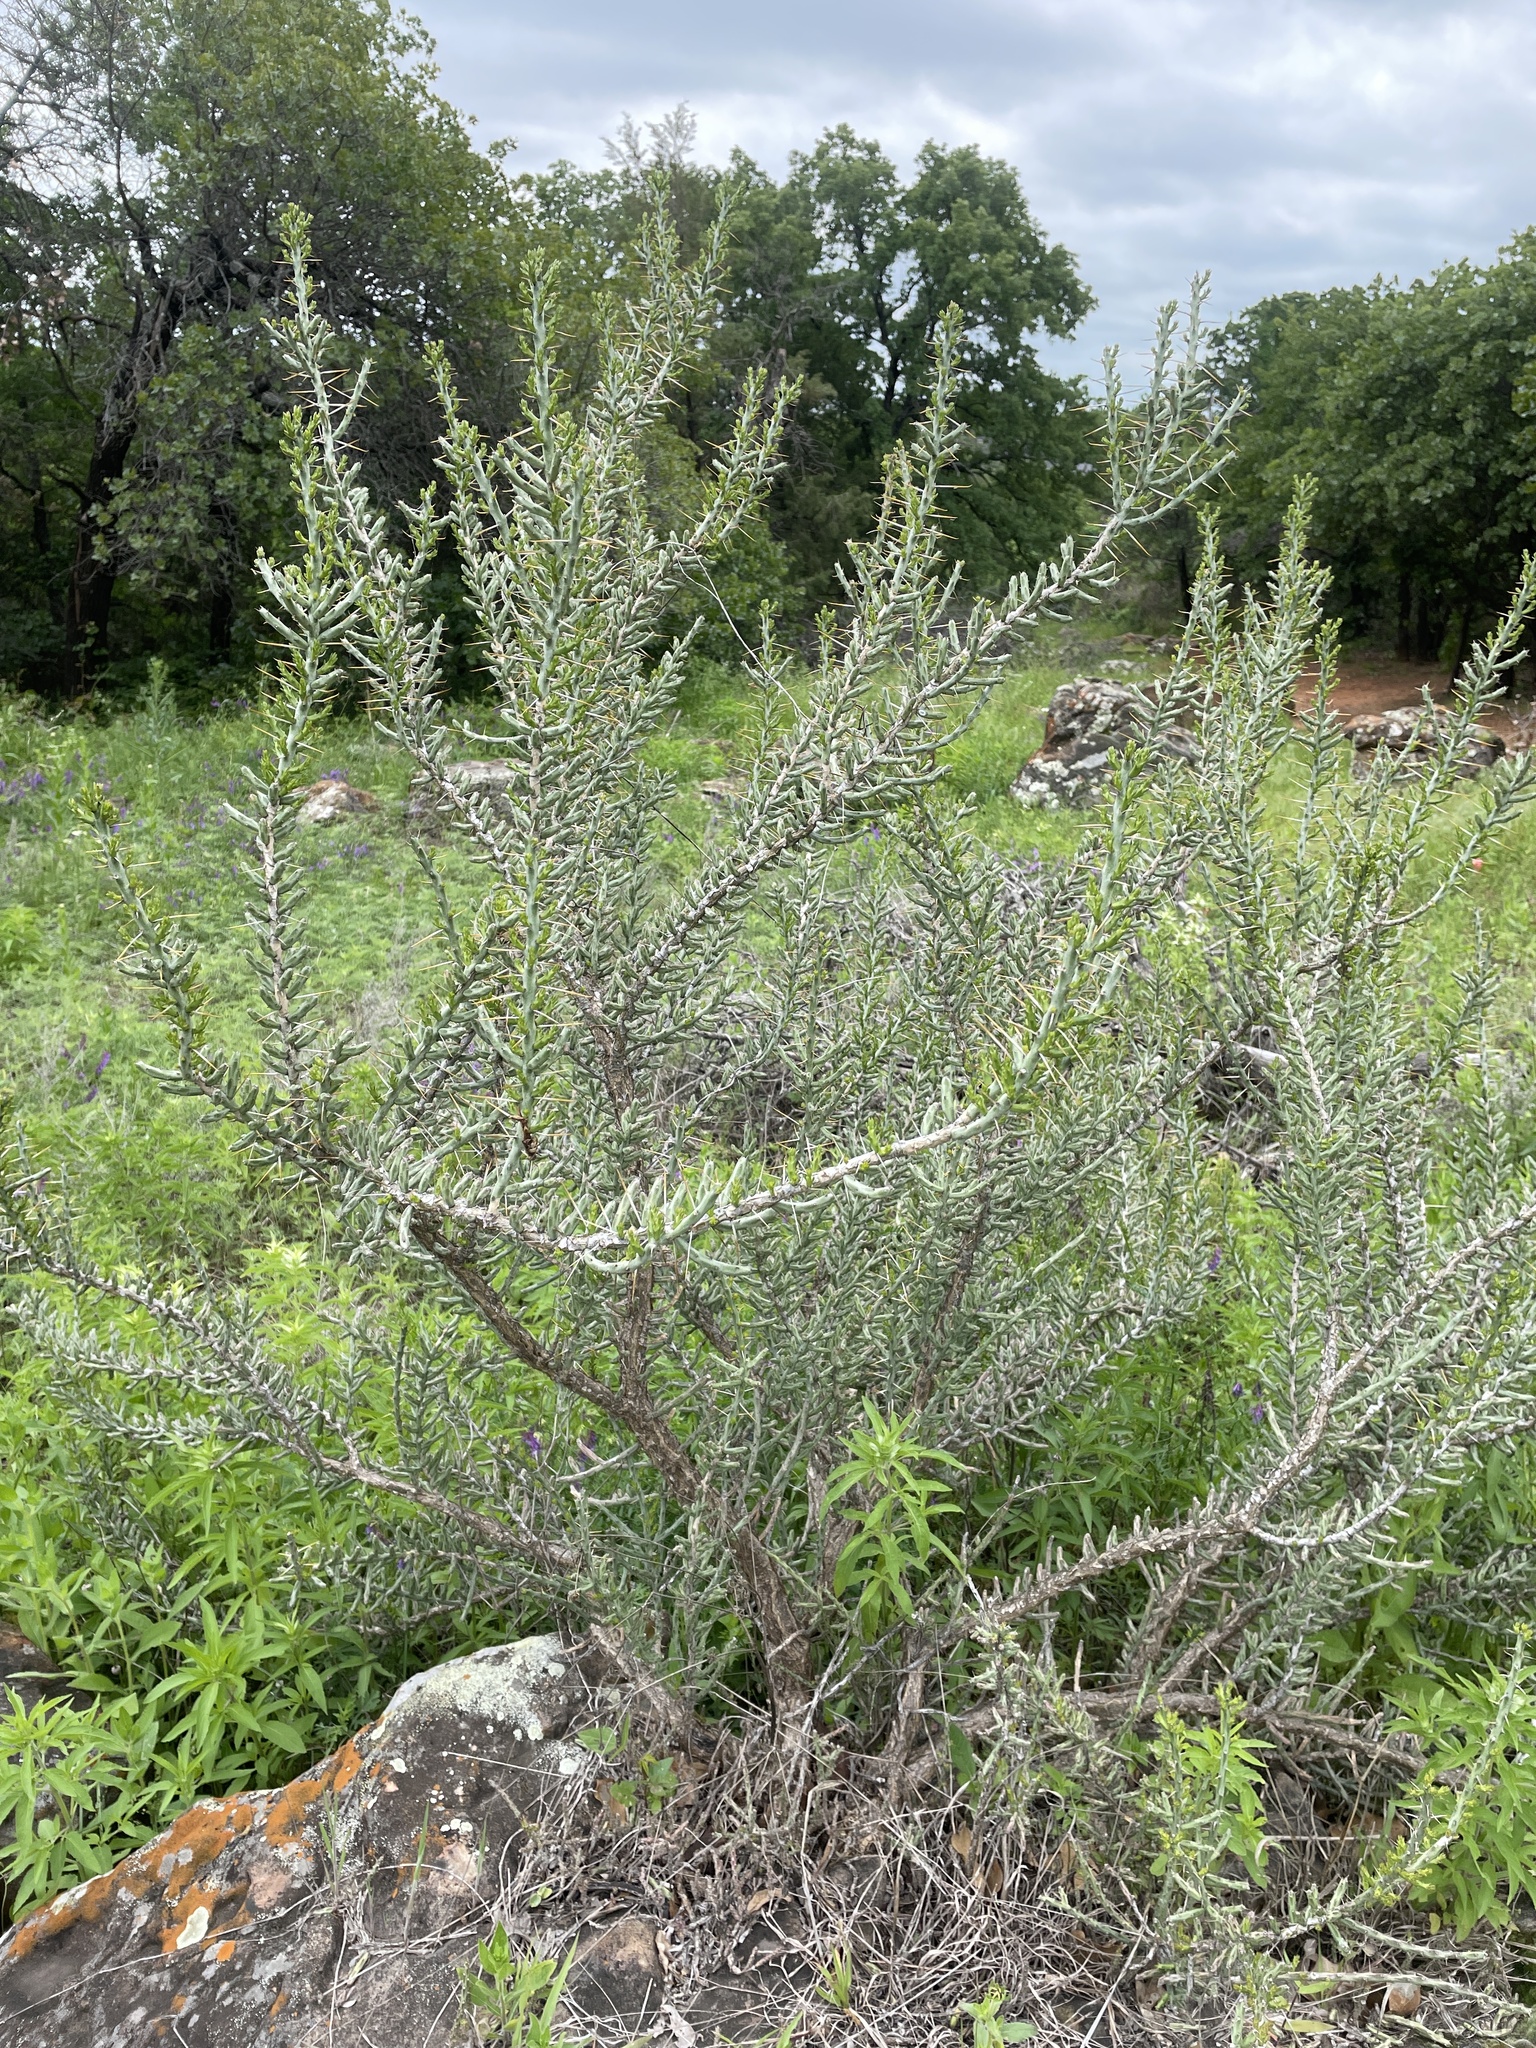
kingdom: Plantae
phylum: Tracheophyta
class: Magnoliopsida
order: Caryophyllales
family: Cactaceae
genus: Cylindropuntia
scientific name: Cylindropuntia leptocaulis
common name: Christmas cactus
